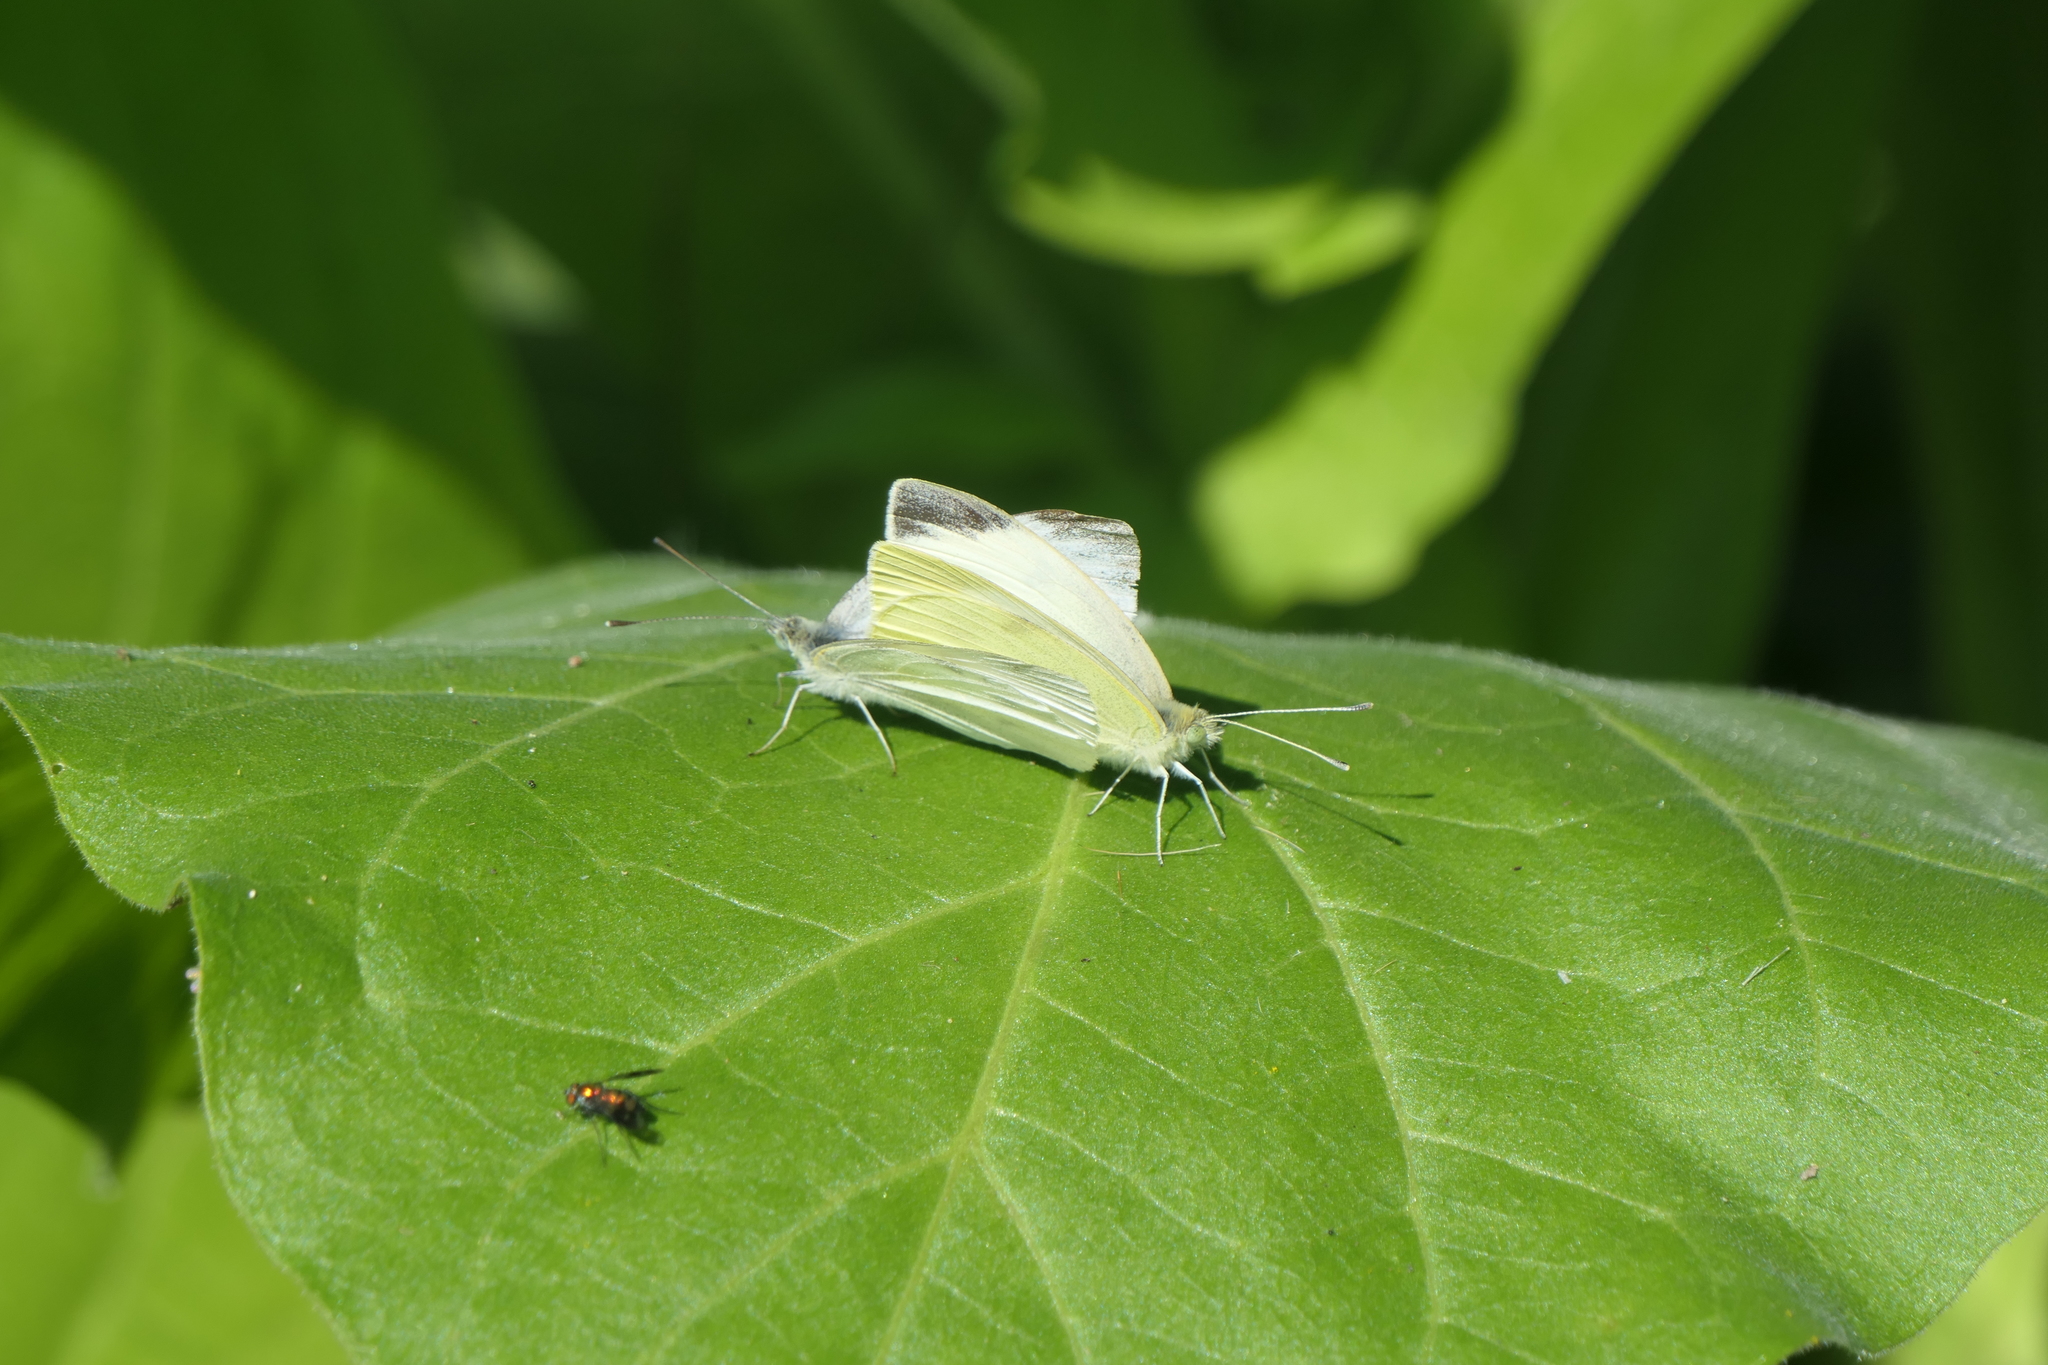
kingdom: Animalia
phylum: Arthropoda
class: Insecta
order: Lepidoptera
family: Pieridae
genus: Pieris
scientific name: Pieris rapae
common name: Small white
